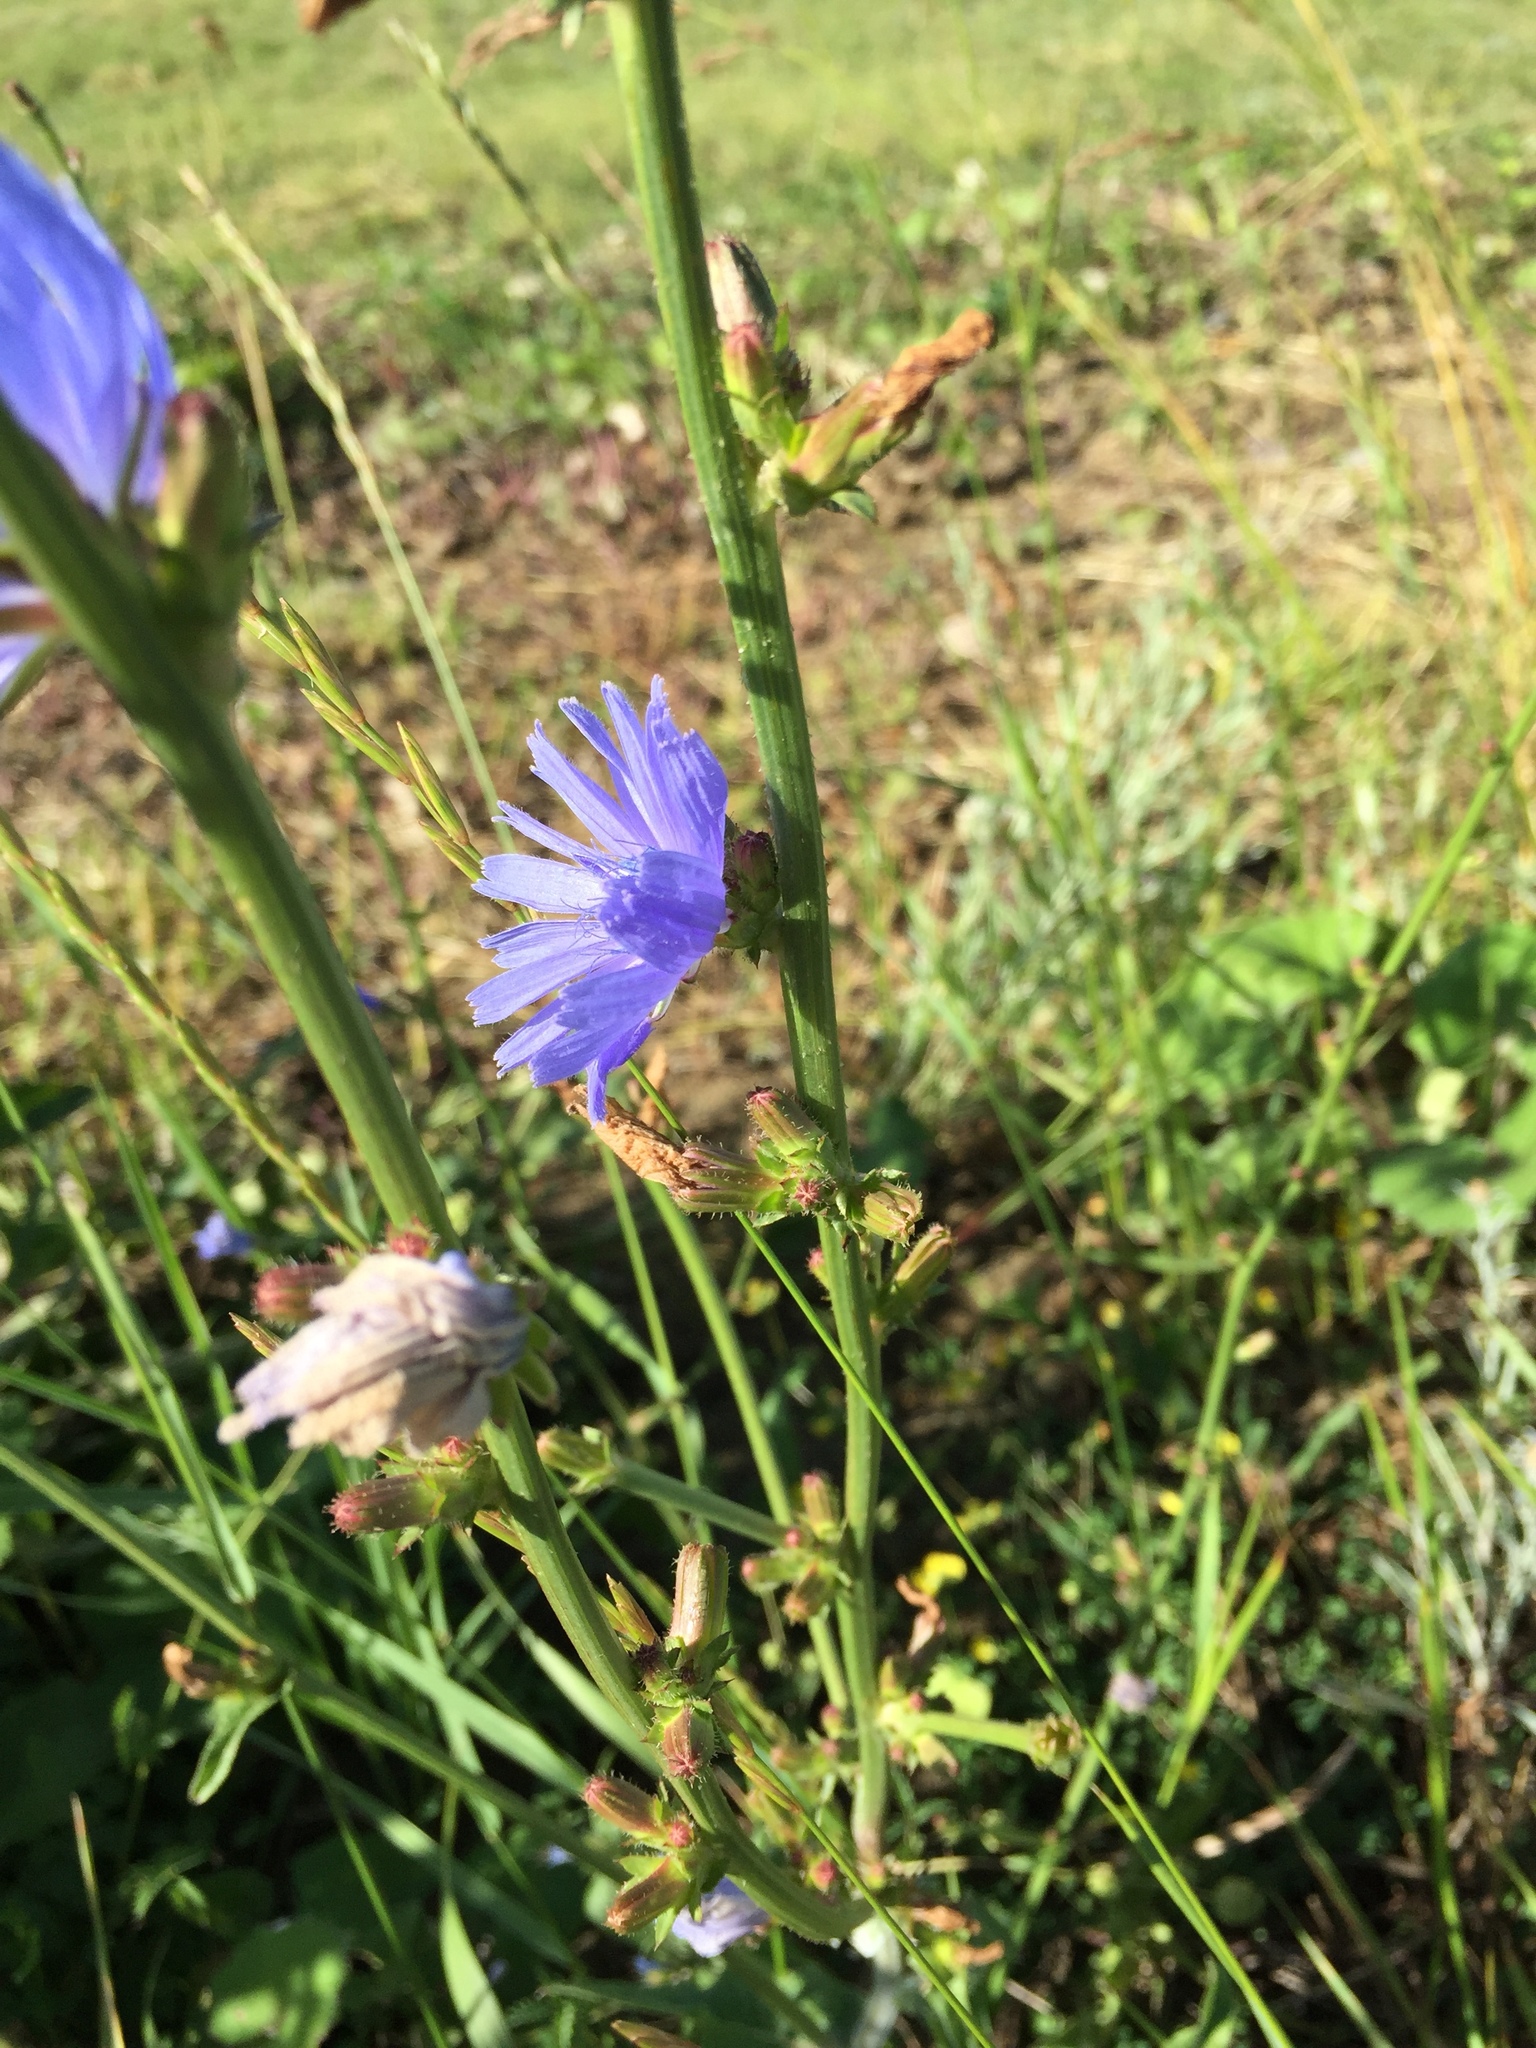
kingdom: Plantae
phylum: Tracheophyta
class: Magnoliopsida
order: Asterales
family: Asteraceae
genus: Cichorium
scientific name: Cichorium intybus
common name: Chicory
